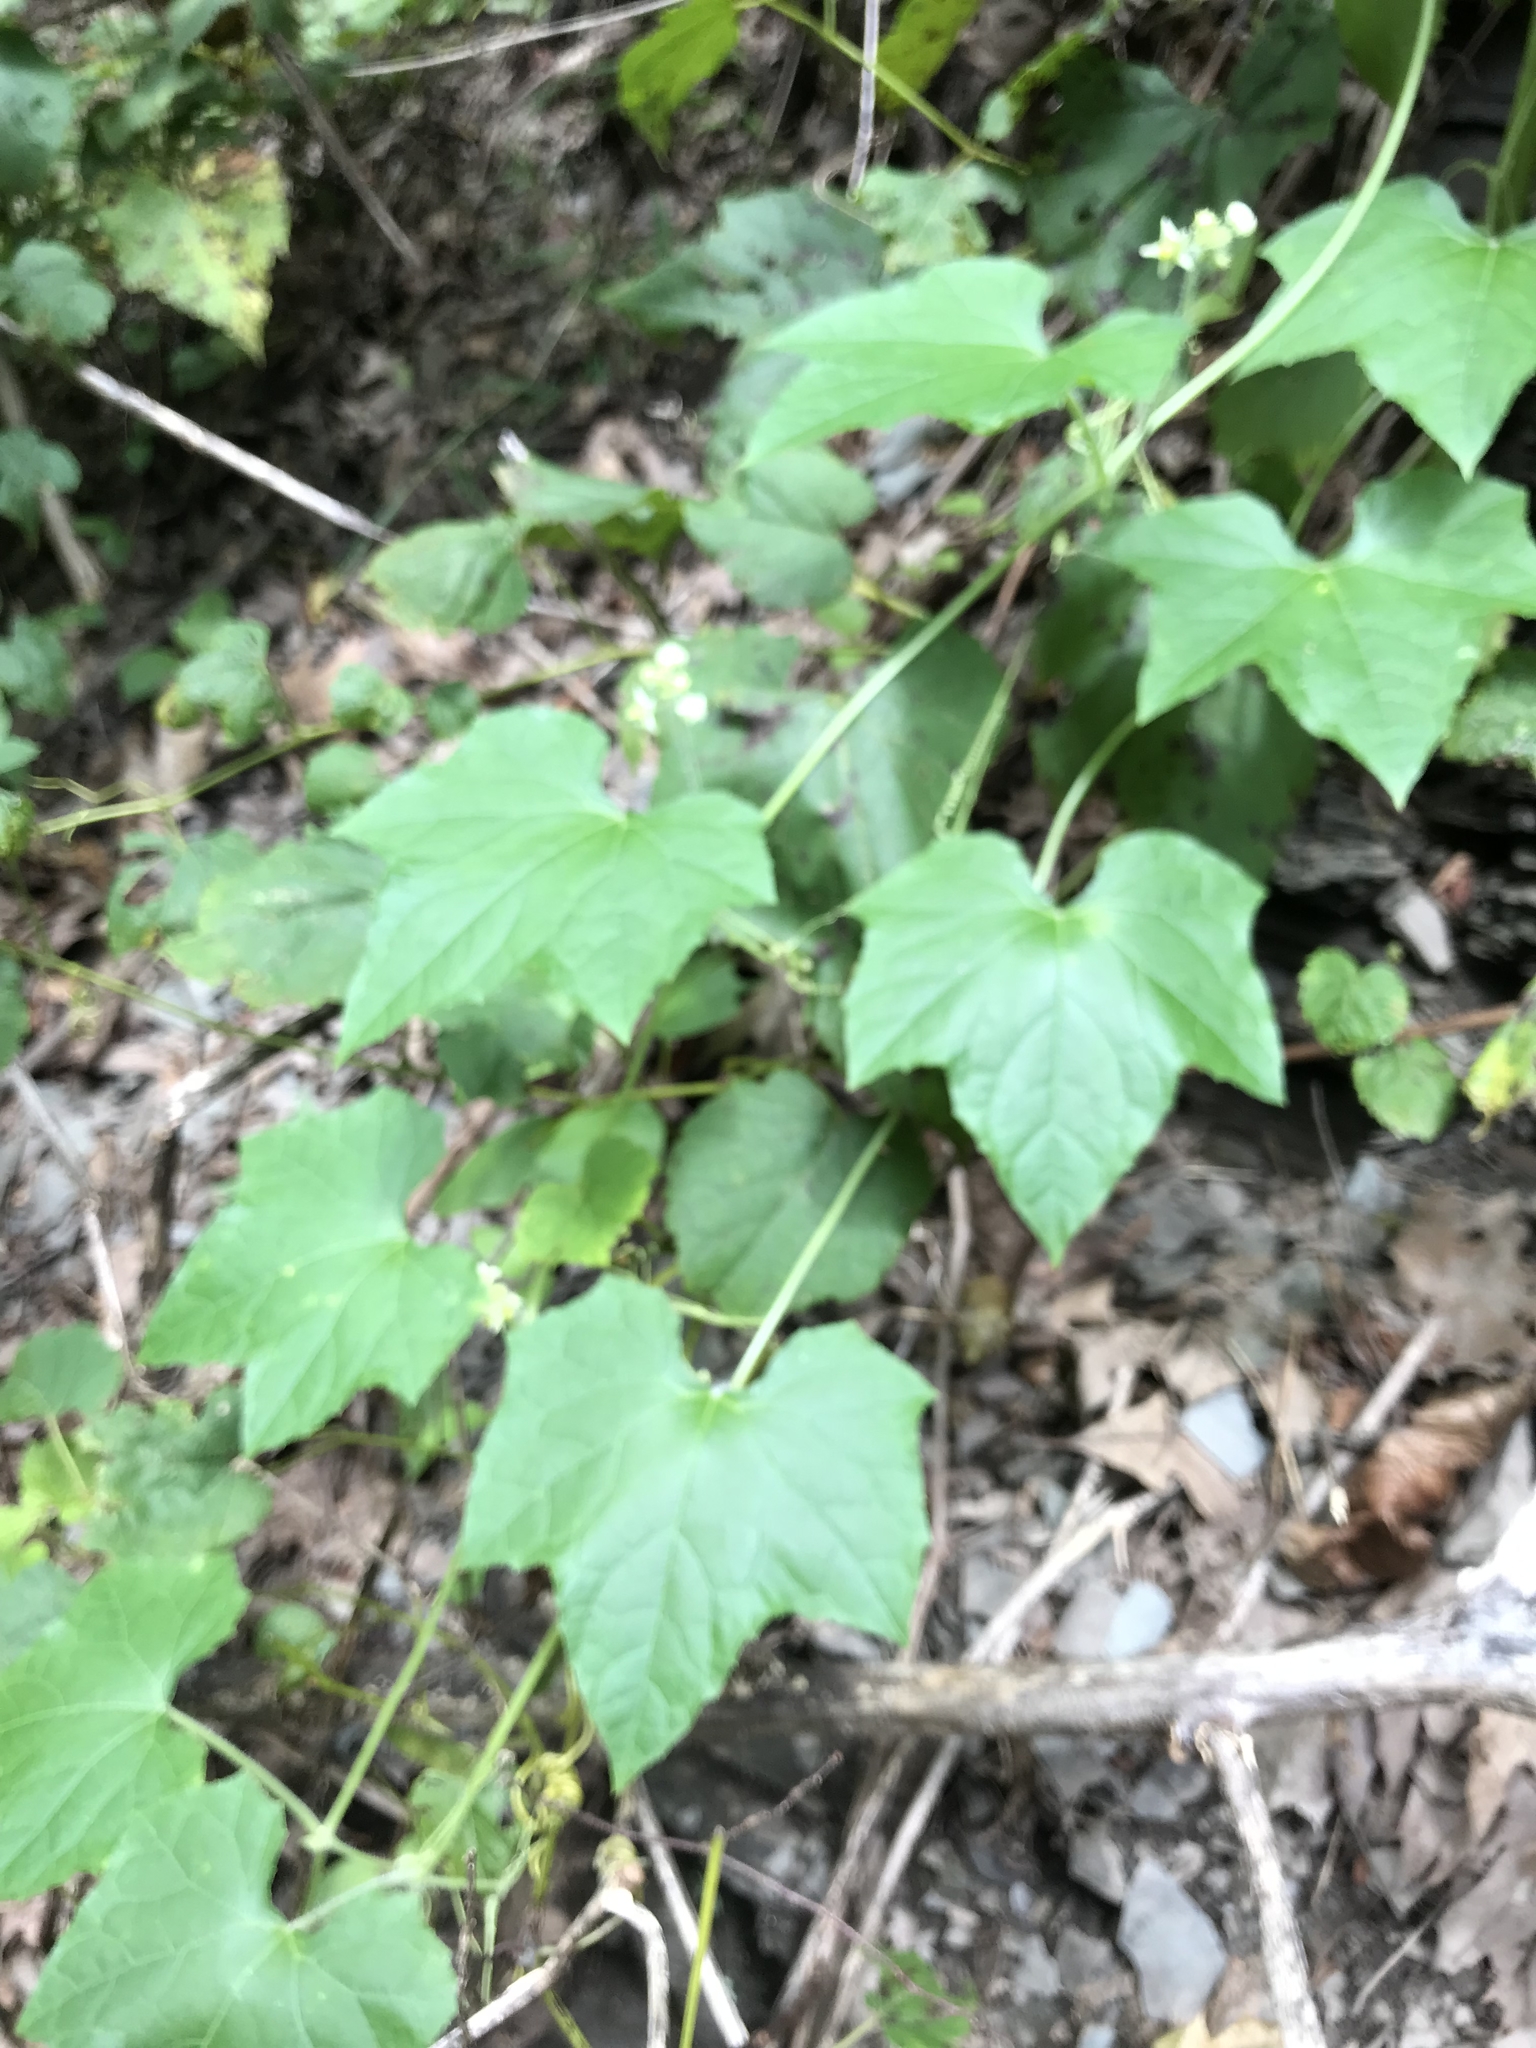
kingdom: Plantae
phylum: Tracheophyta
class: Magnoliopsida
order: Cucurbitales
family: Cucurbitaceae
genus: Sicyos
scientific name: Sicyos angulatus
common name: Angled burr cucumber
